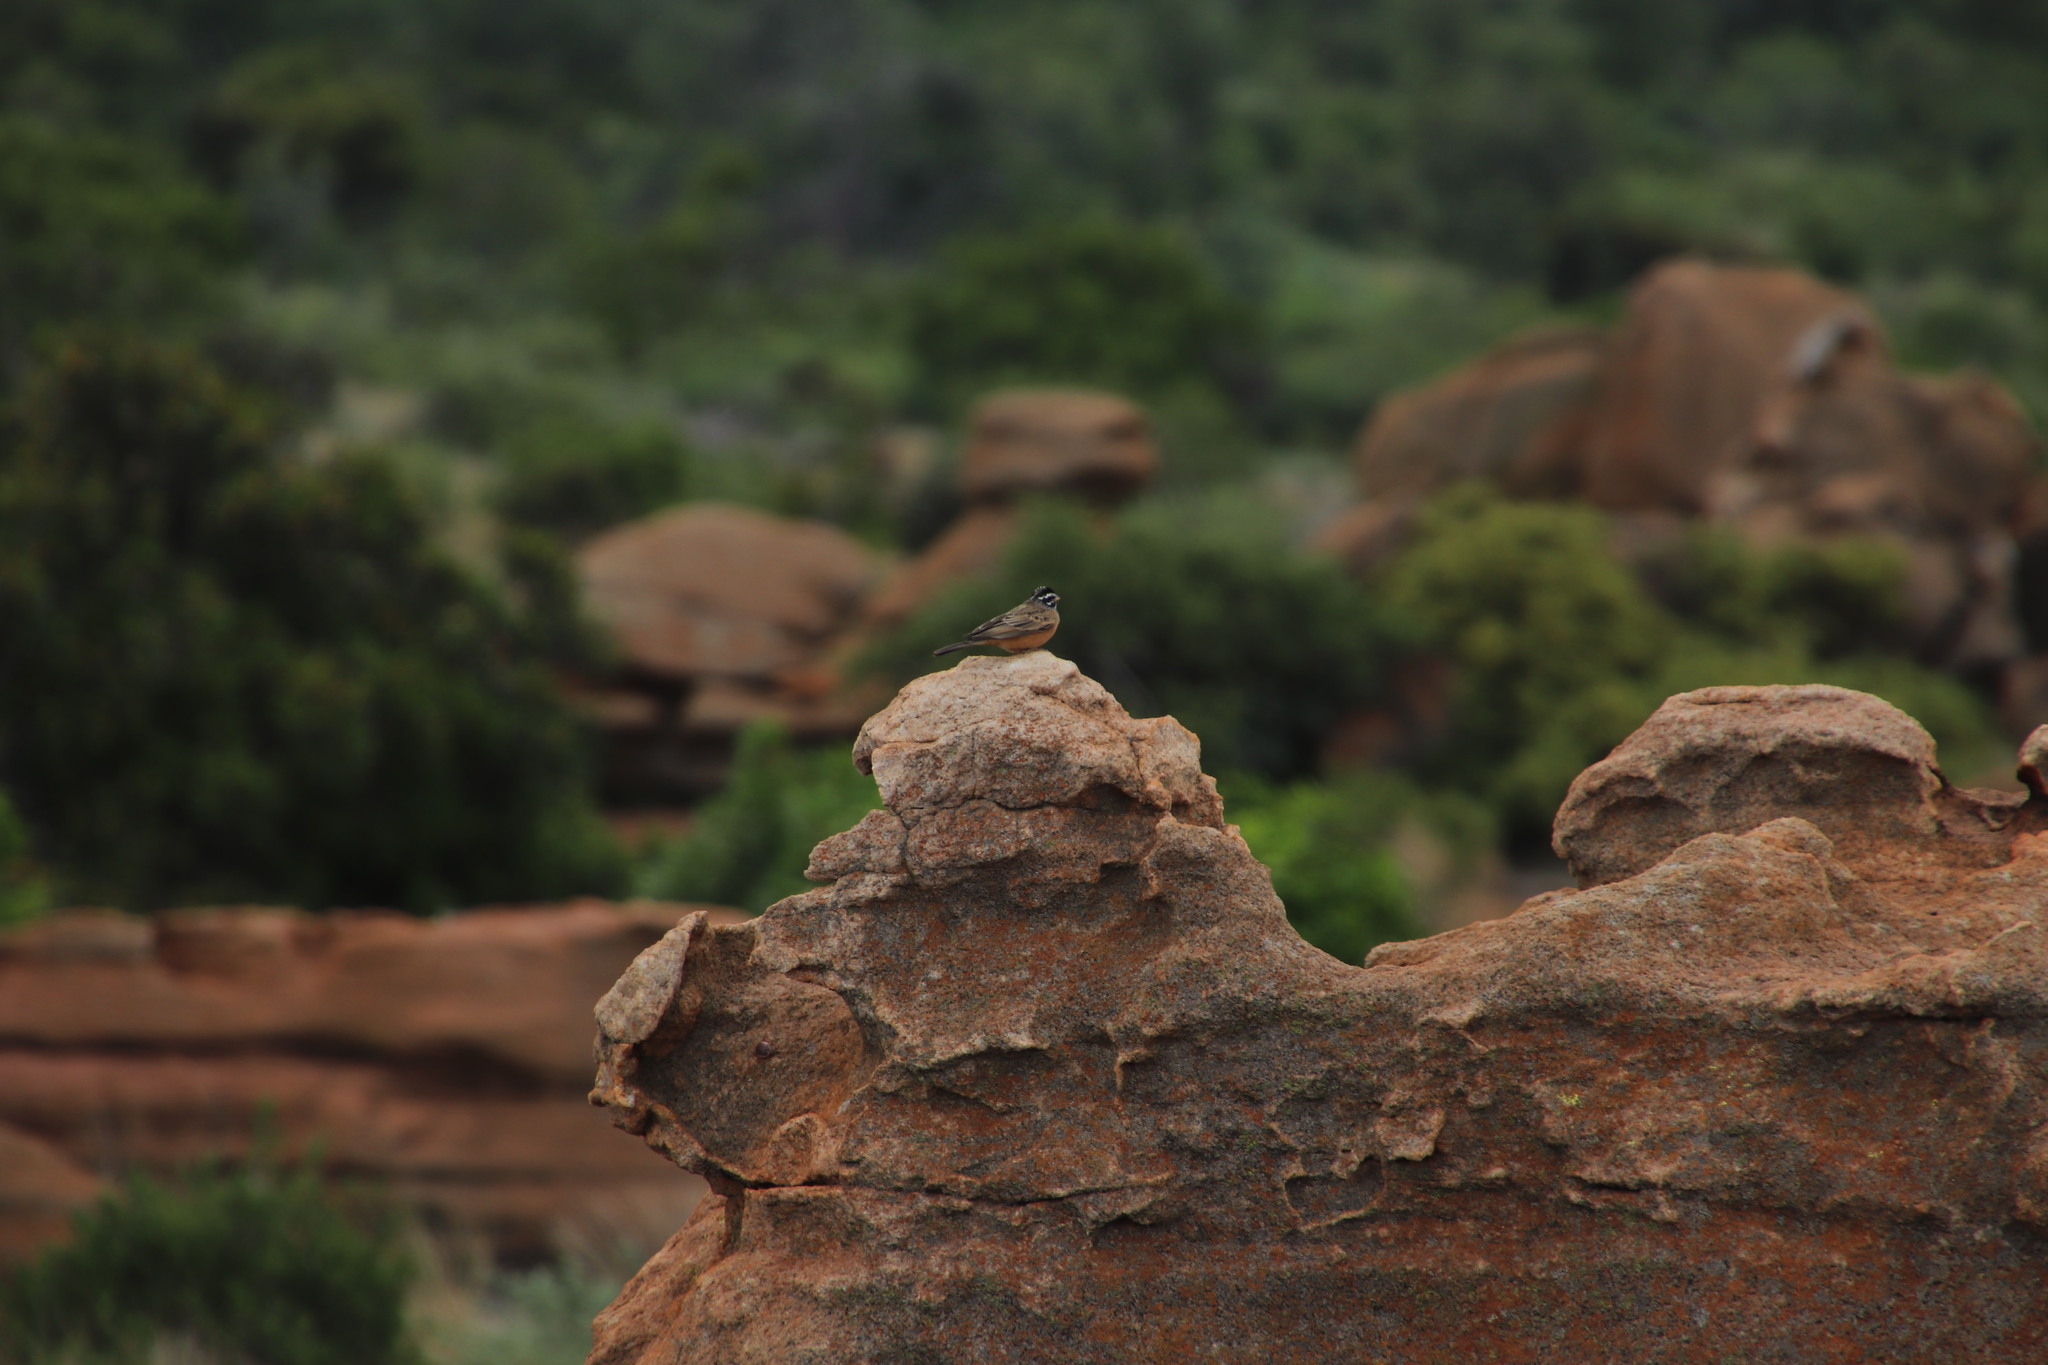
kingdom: Animalia
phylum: Chordata
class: Aves
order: Passeriformes
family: Emberizidae
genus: Emberiza
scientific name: Emberiza tahapisi
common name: Cinnamon-breasted bunting
